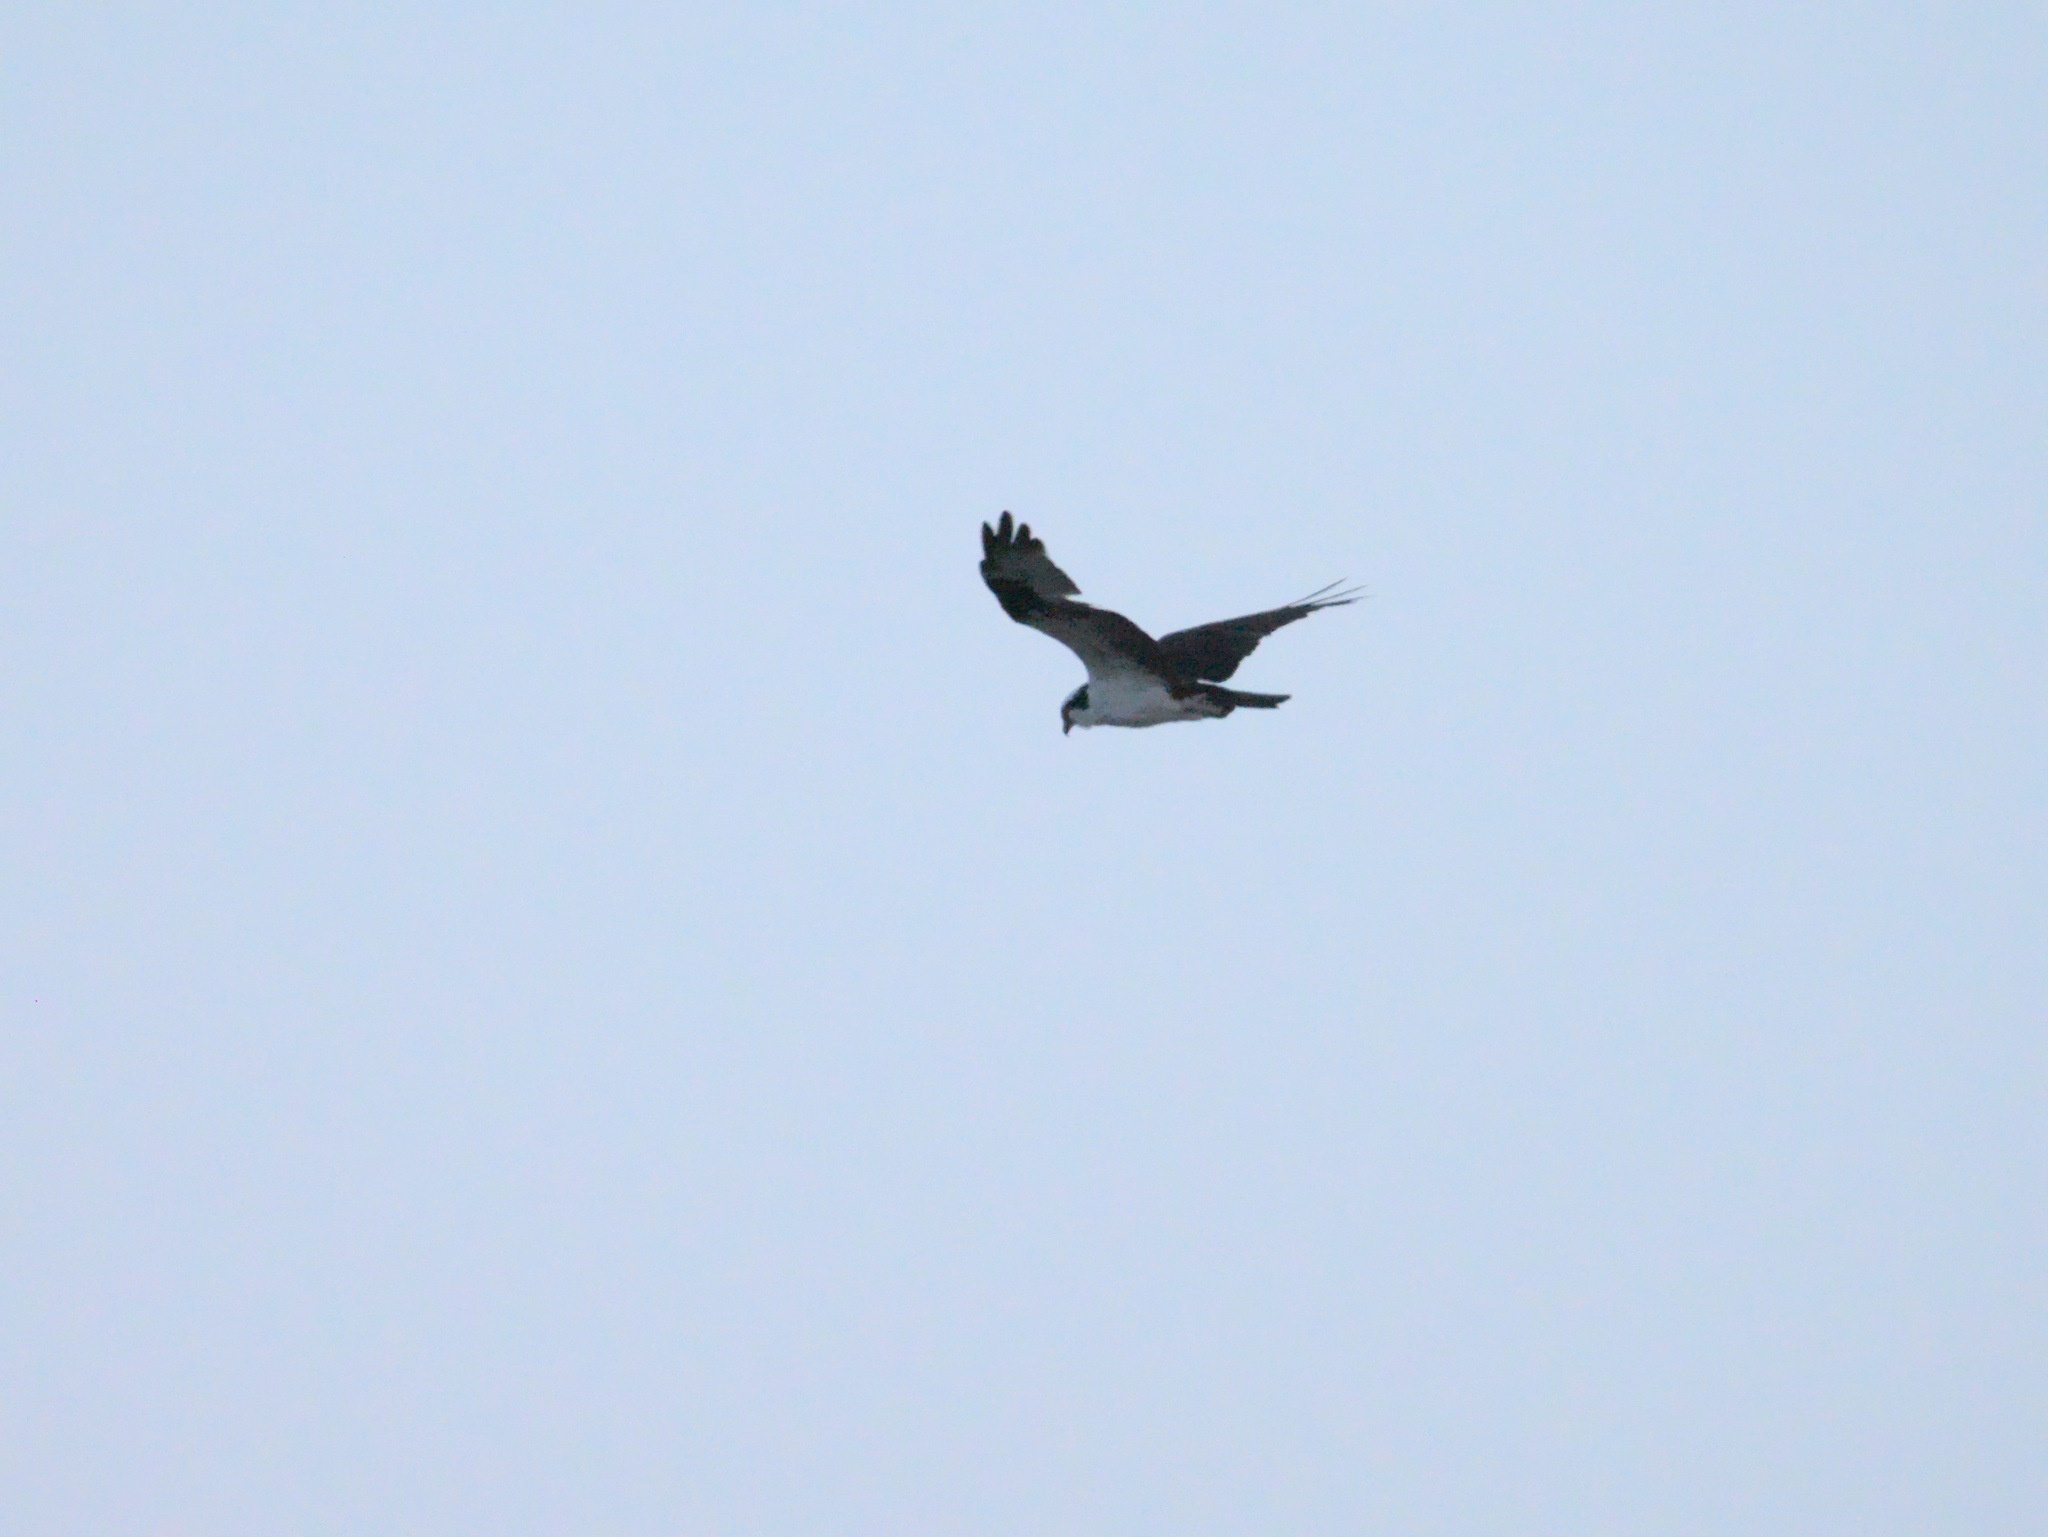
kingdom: Animalia
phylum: Chordata
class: Aves
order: Accipitriformes
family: Pandionidae
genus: Pandion
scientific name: Pandion haliaetus
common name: Osprey
